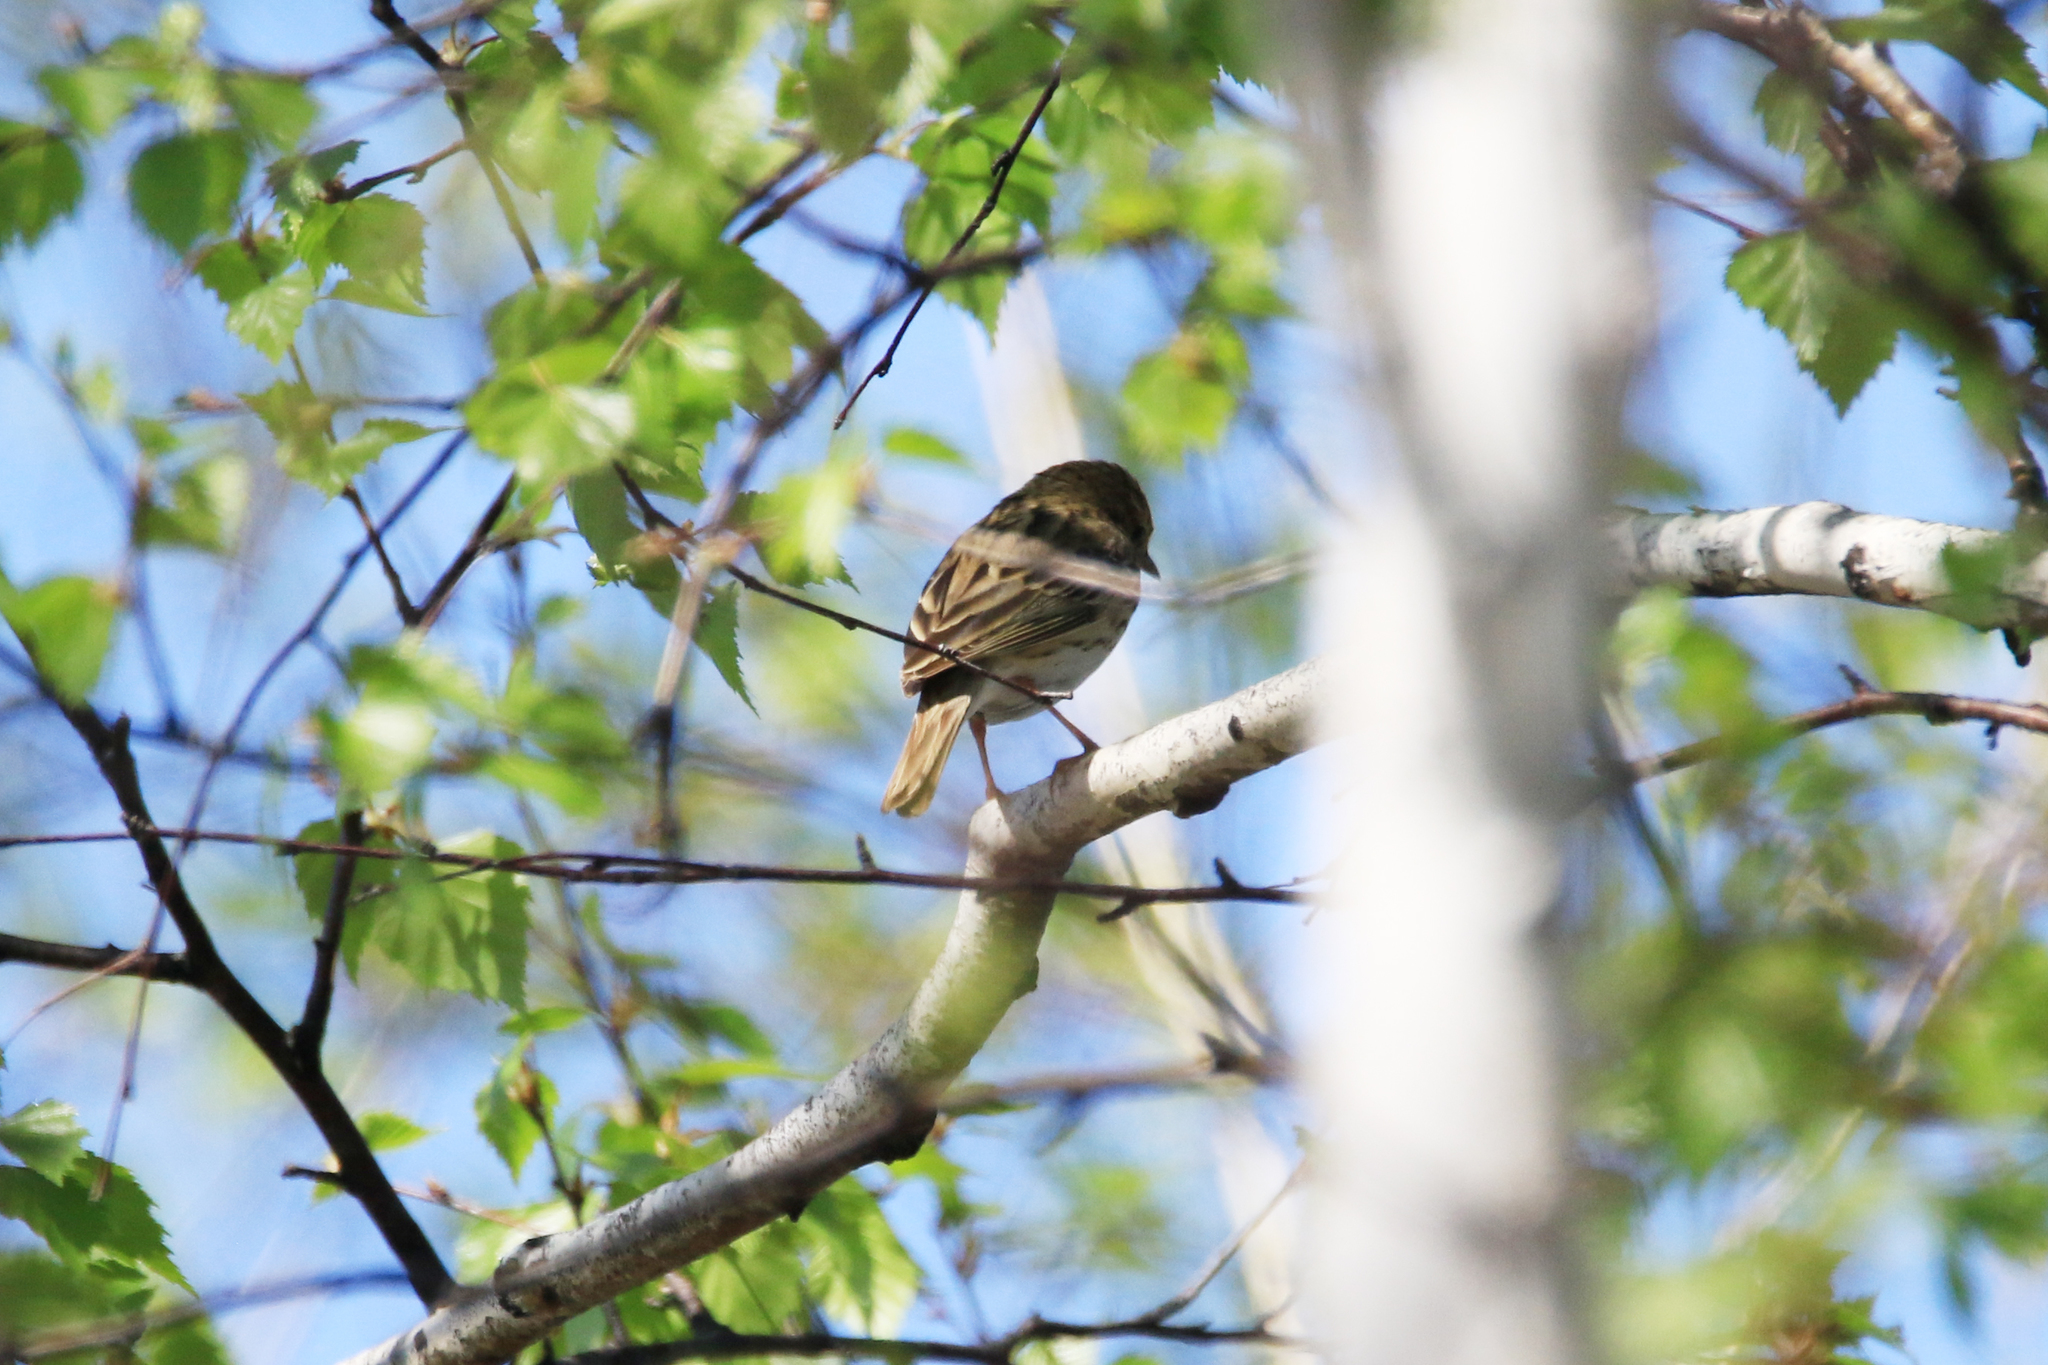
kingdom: Animalia
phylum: Chordata
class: Aves
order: Passeriformes
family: Motacillidae
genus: Anthus
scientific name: Anthus trivialis
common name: Tree pipit
